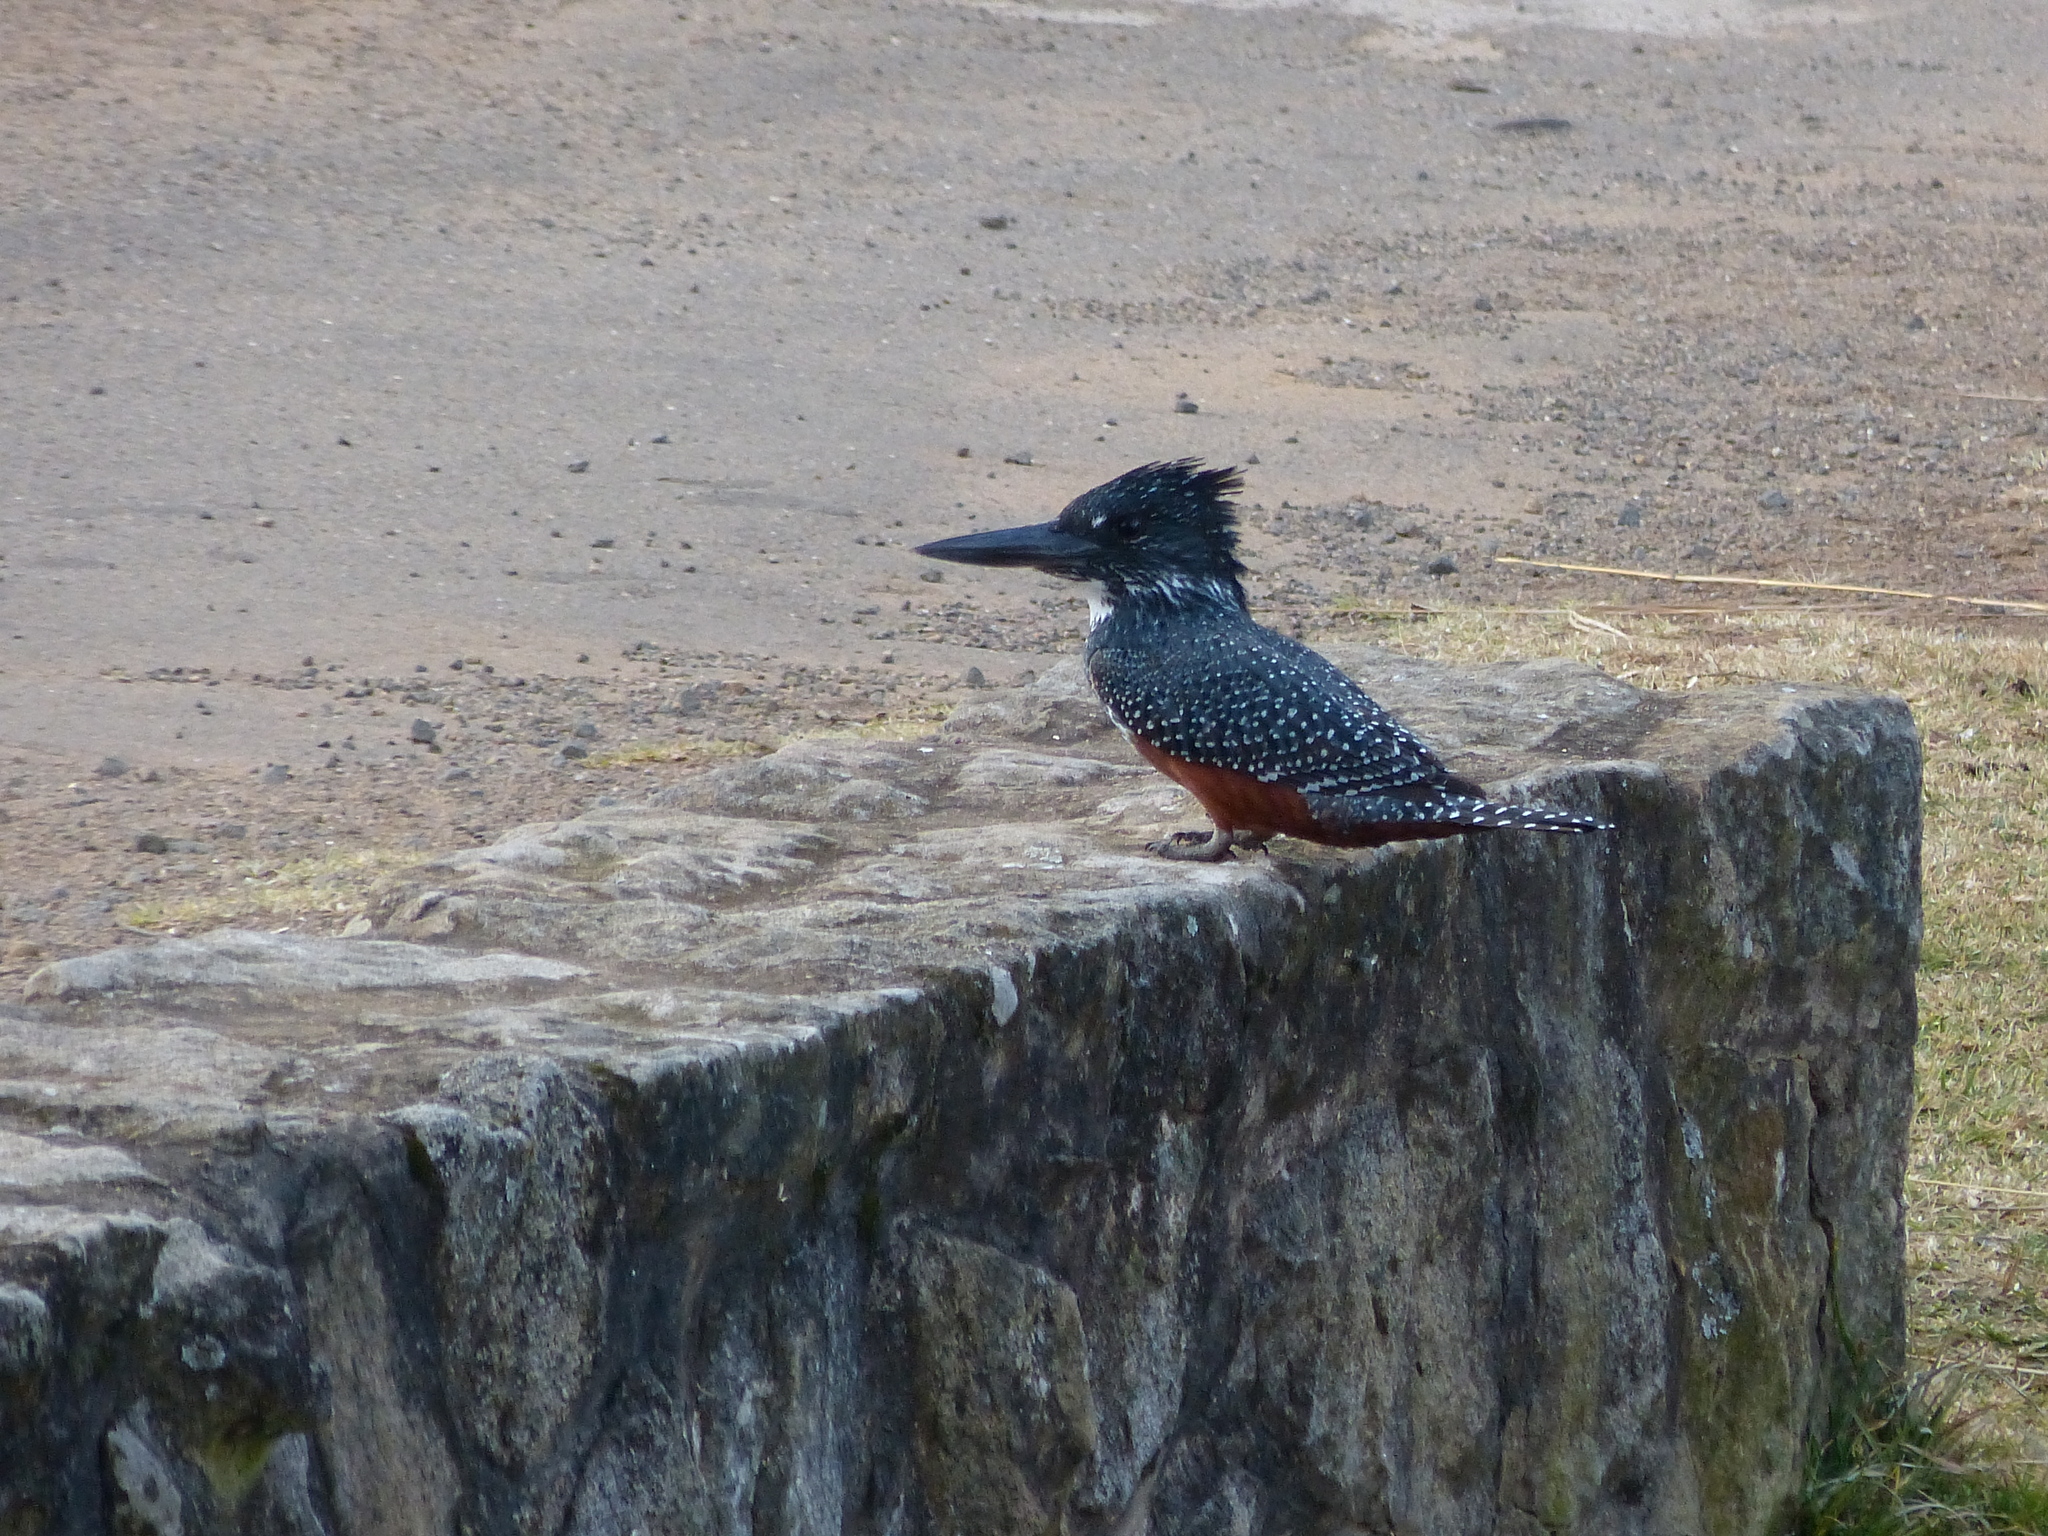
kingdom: Animalia
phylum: Chordata
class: Aves
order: Coraciiformes
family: Alcedinidae
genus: Megaceryle
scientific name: Megaceryle maxima
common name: Giant kingfisher
